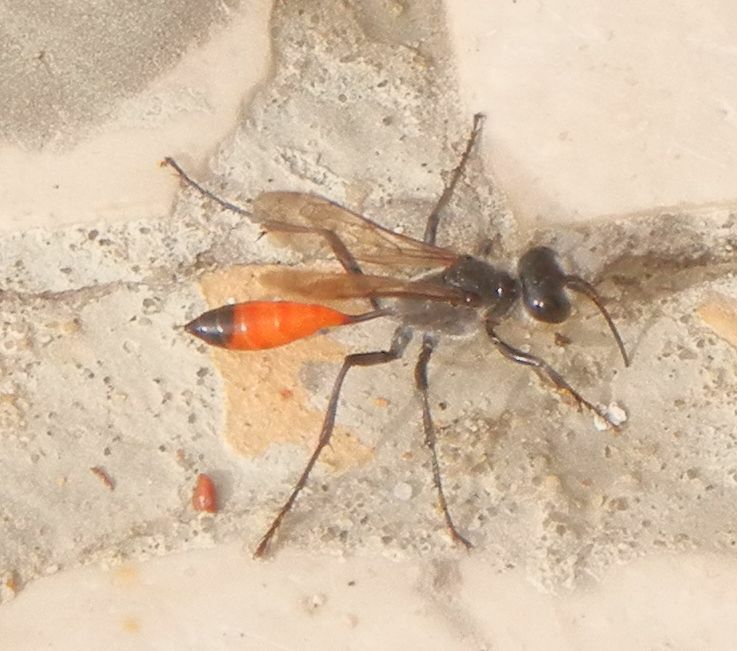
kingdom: Animalia
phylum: Arthropoda
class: Insecta
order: Hymenoptera
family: Sphecidae
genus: Podalonia
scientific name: Podalonia tydei
